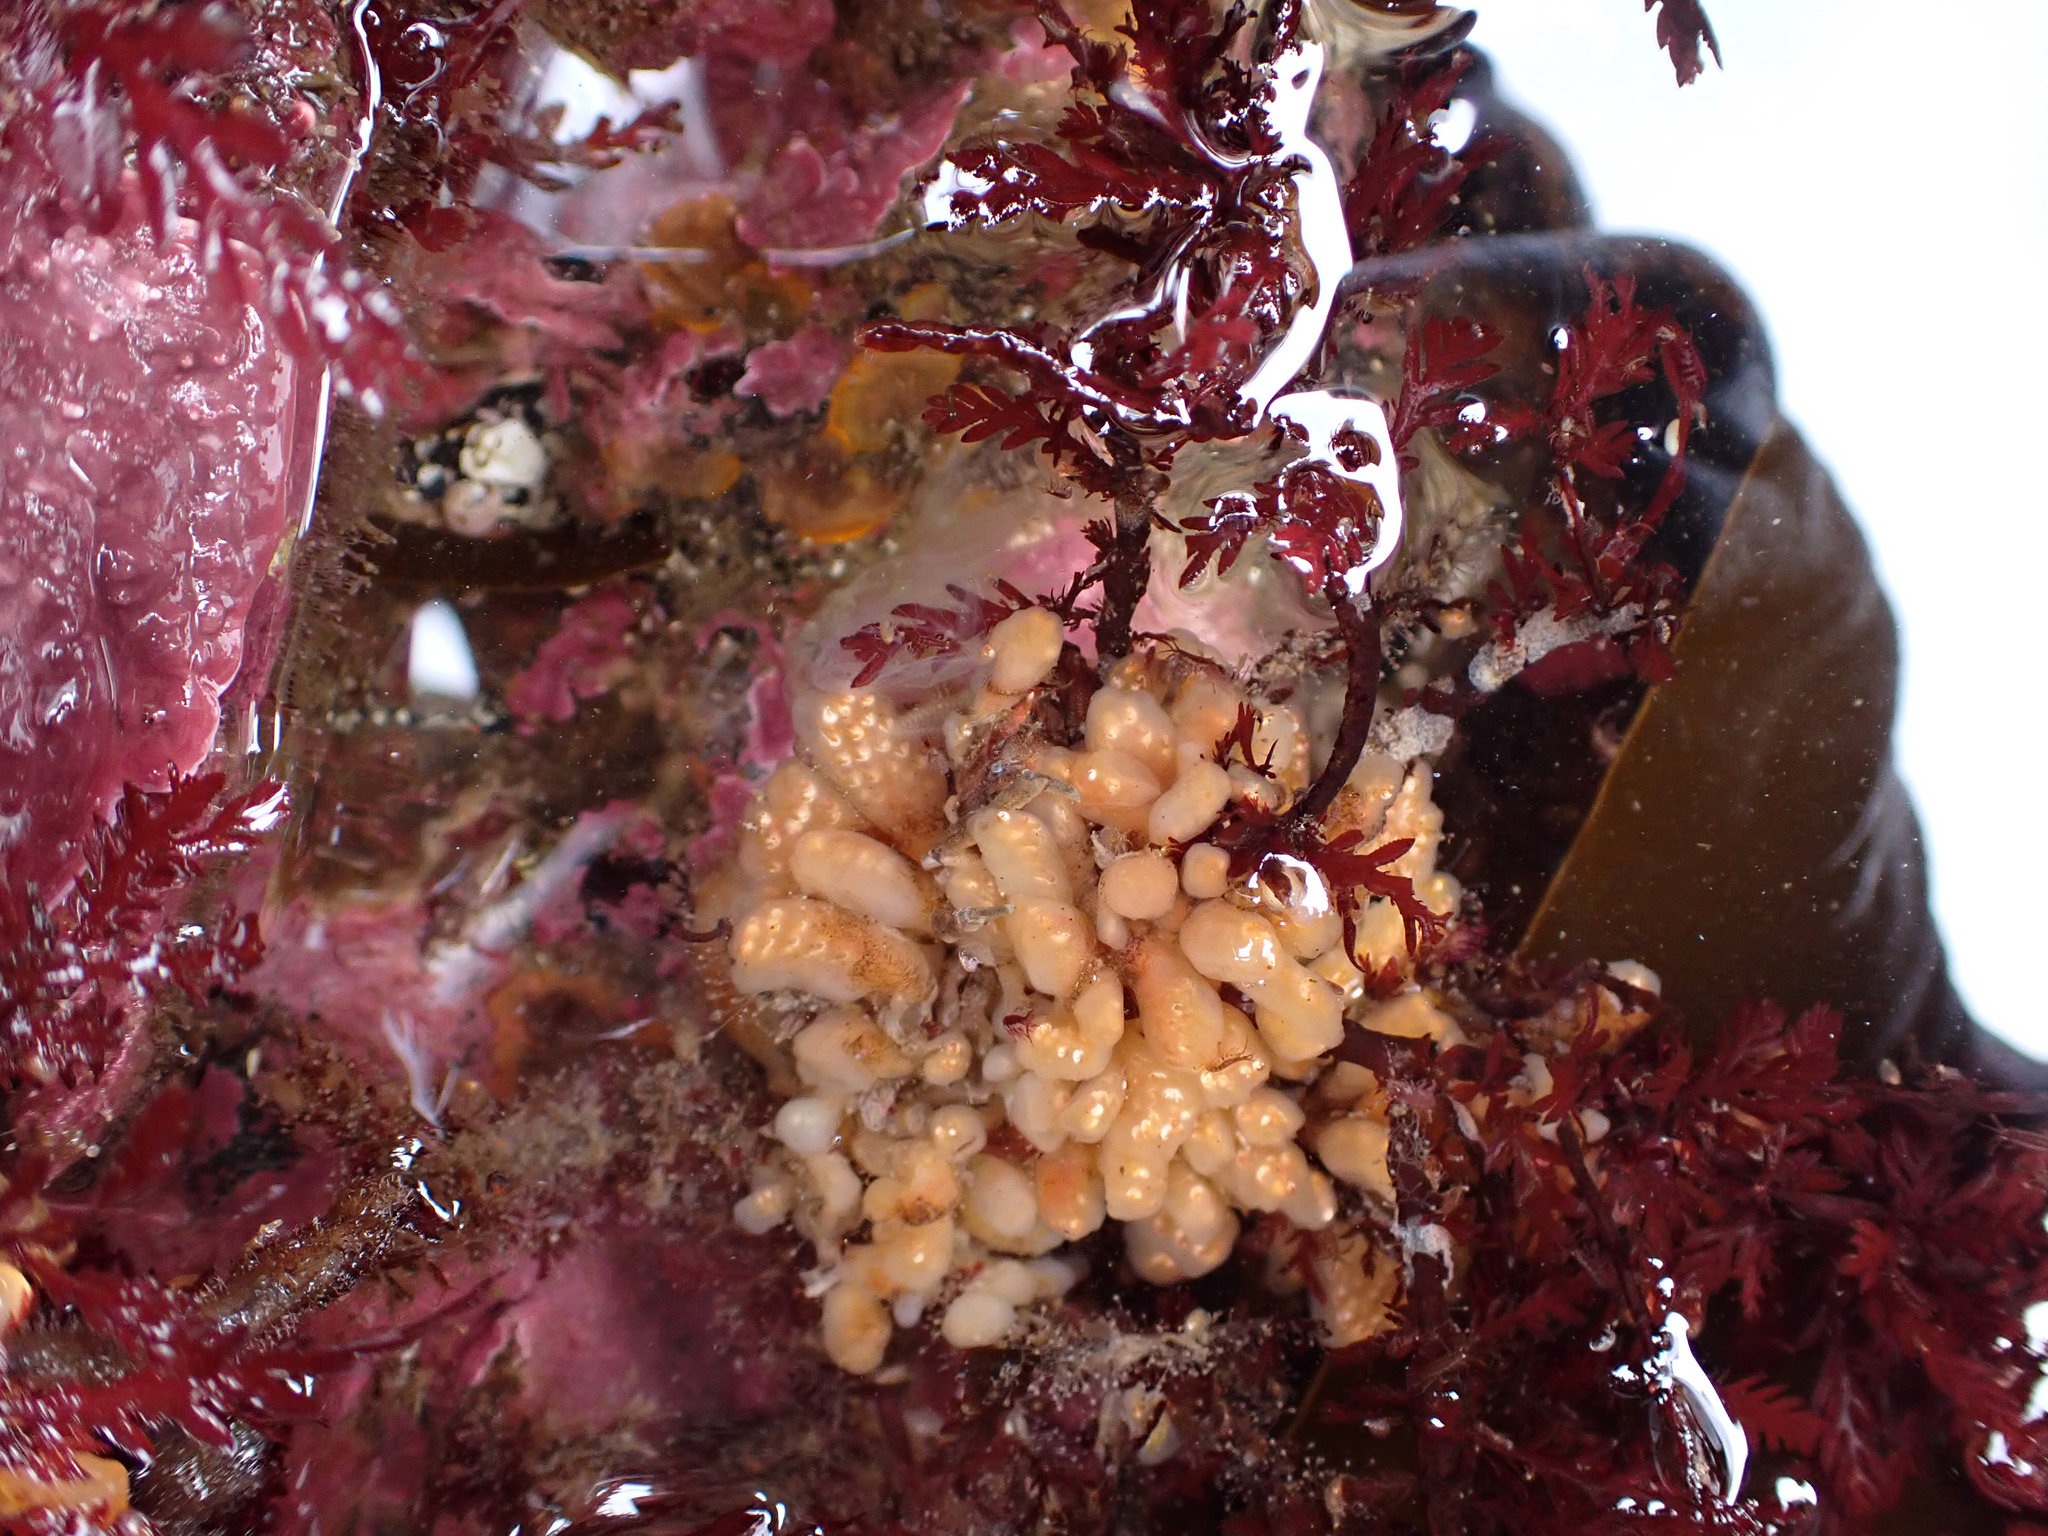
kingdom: Animalia
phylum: Chordata
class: Ascidiacea
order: Aplousobranchia
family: Holozoidae
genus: Distaplia
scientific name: Distaplia smithi
